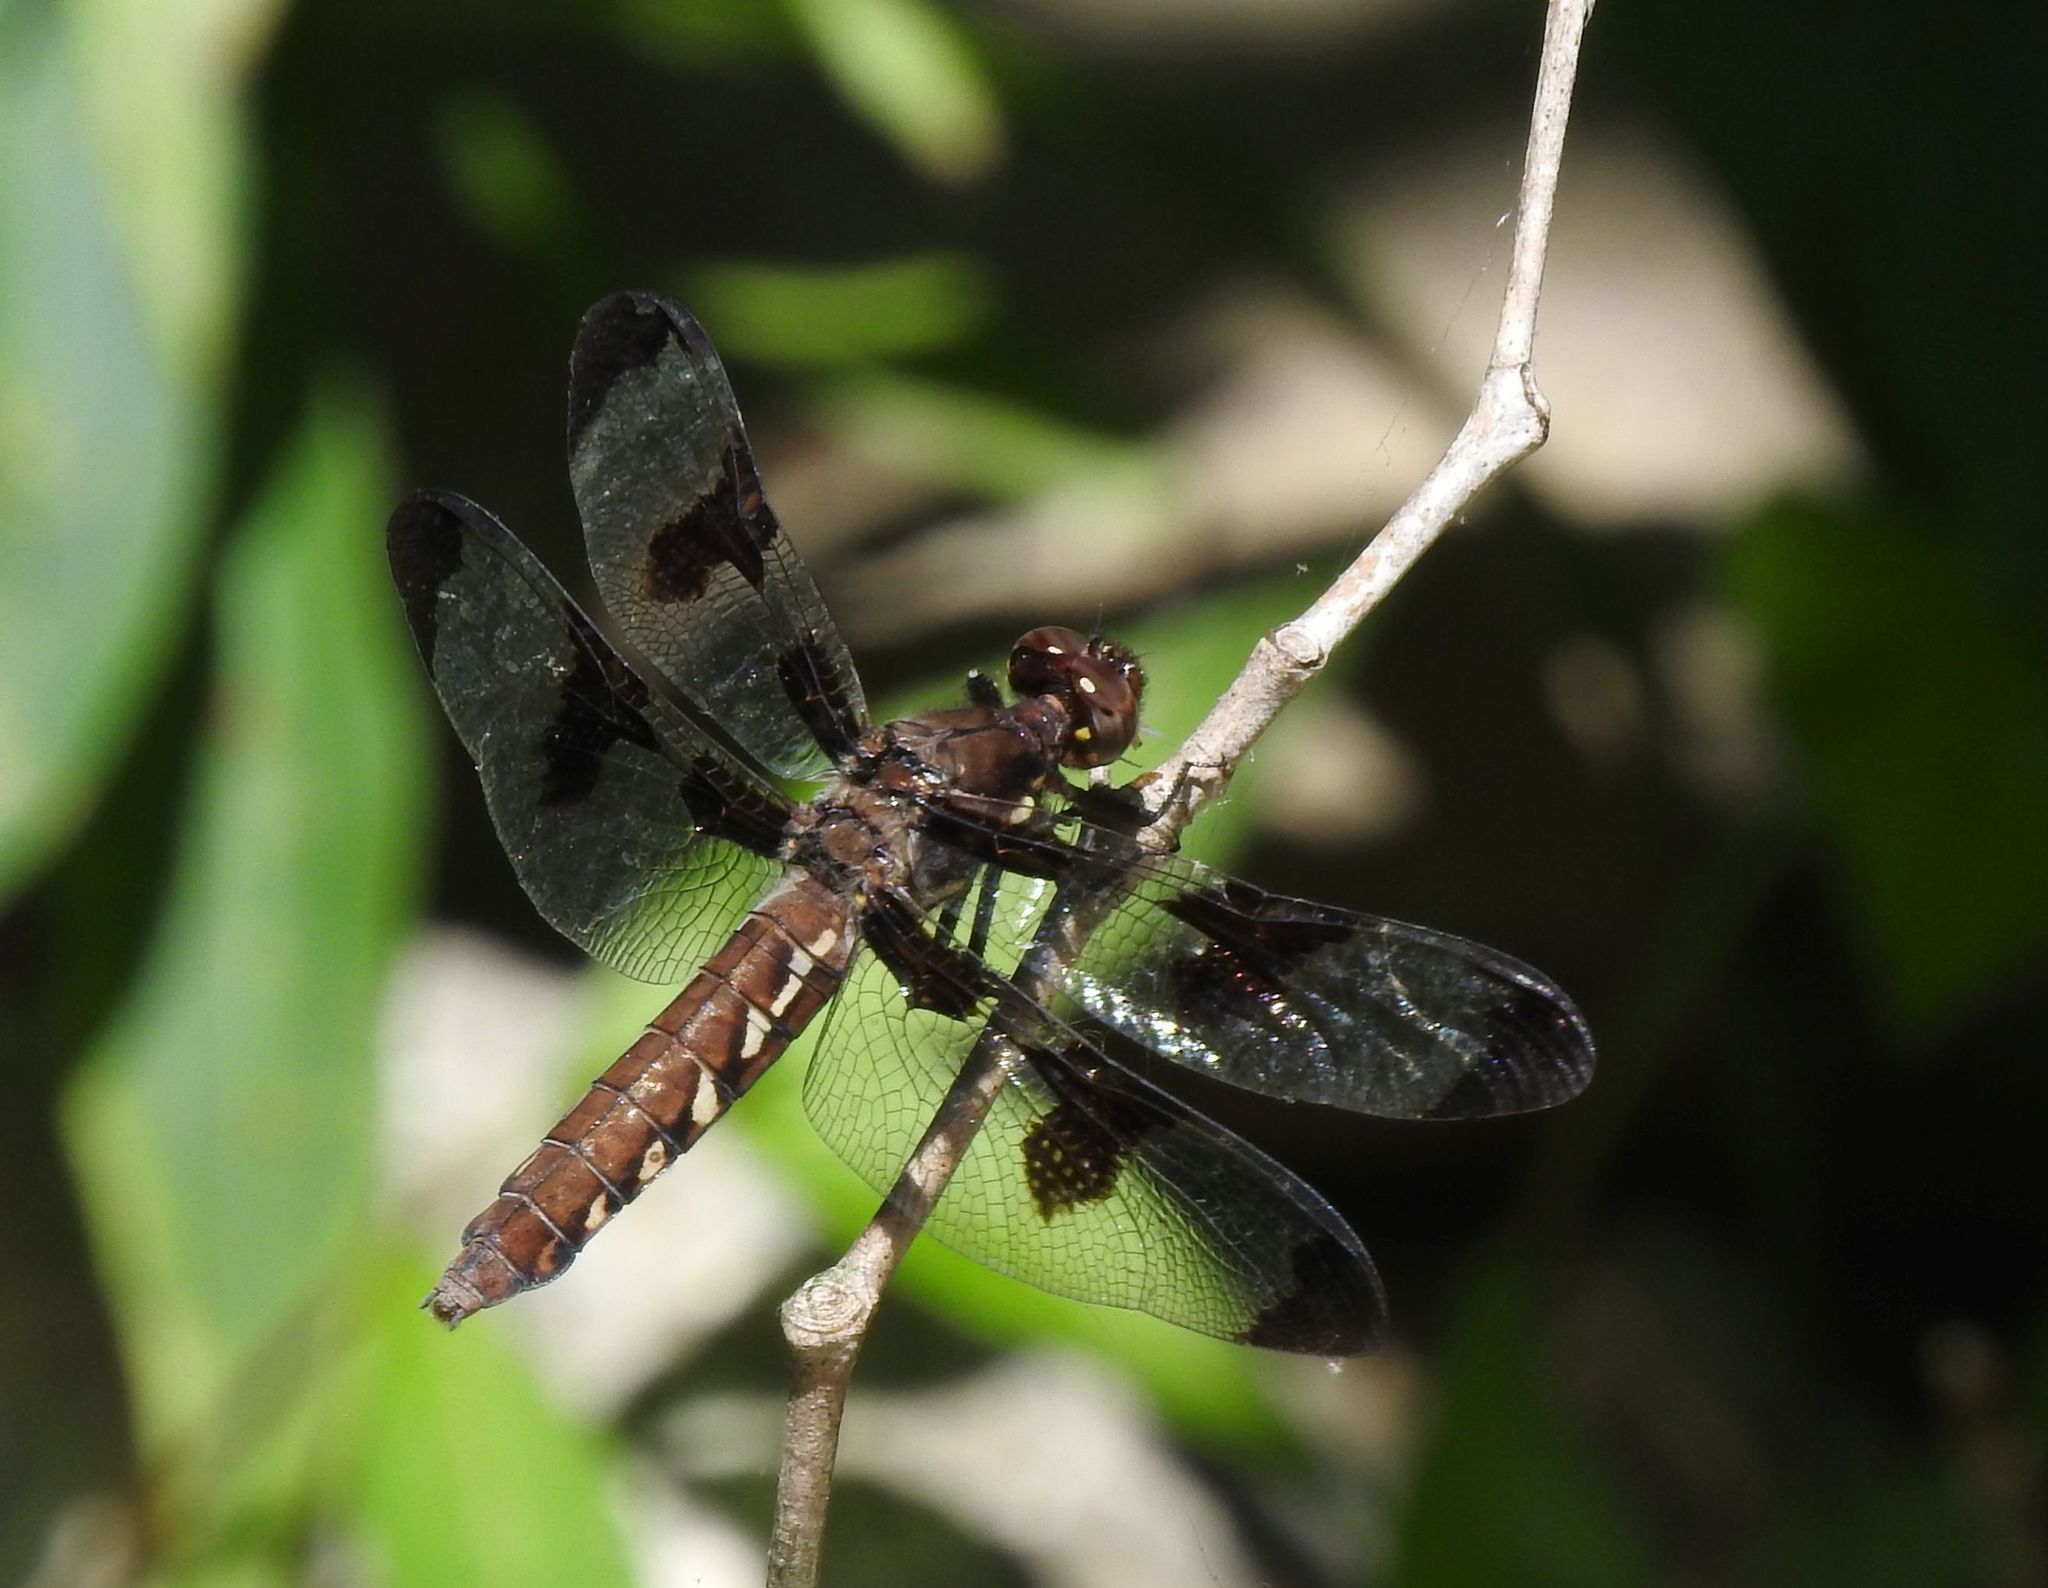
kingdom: Animalia
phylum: Arthropoda
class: Insecta
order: Odonata
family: Libellulidae
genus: Plathemis
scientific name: Plathemis lydia
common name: Common whitetail
